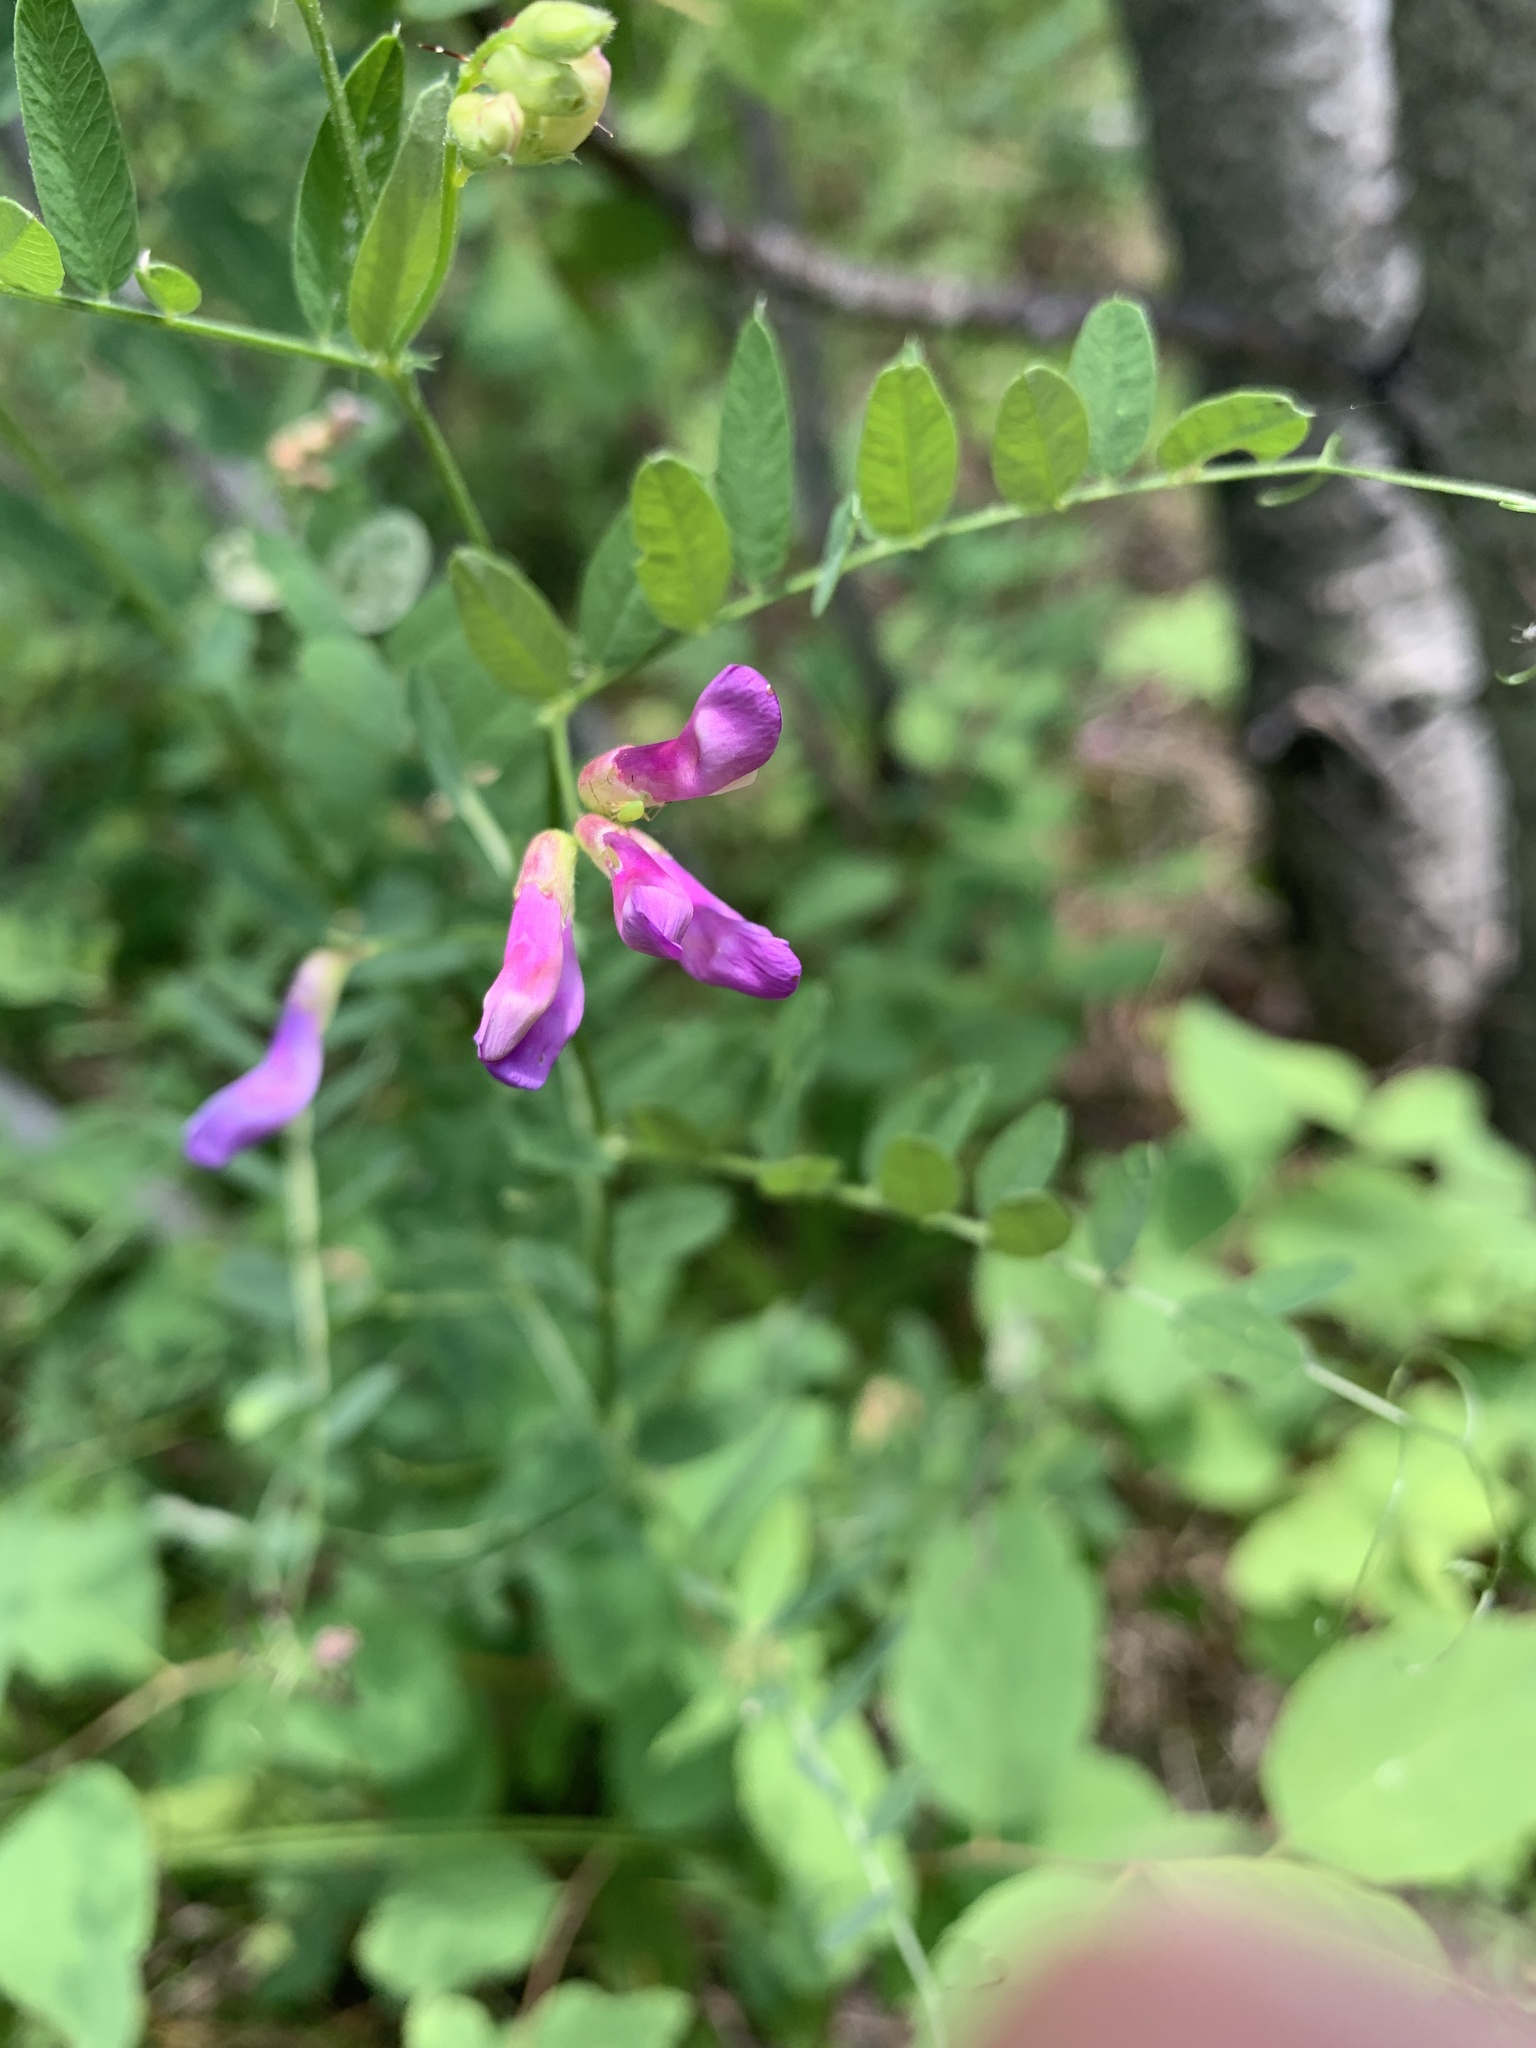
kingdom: Plantae
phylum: Tracheophyta
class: Magnoliopsida
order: Fabales
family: Fabaceae
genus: Vicia
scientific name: Vicia americana
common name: American vetch
